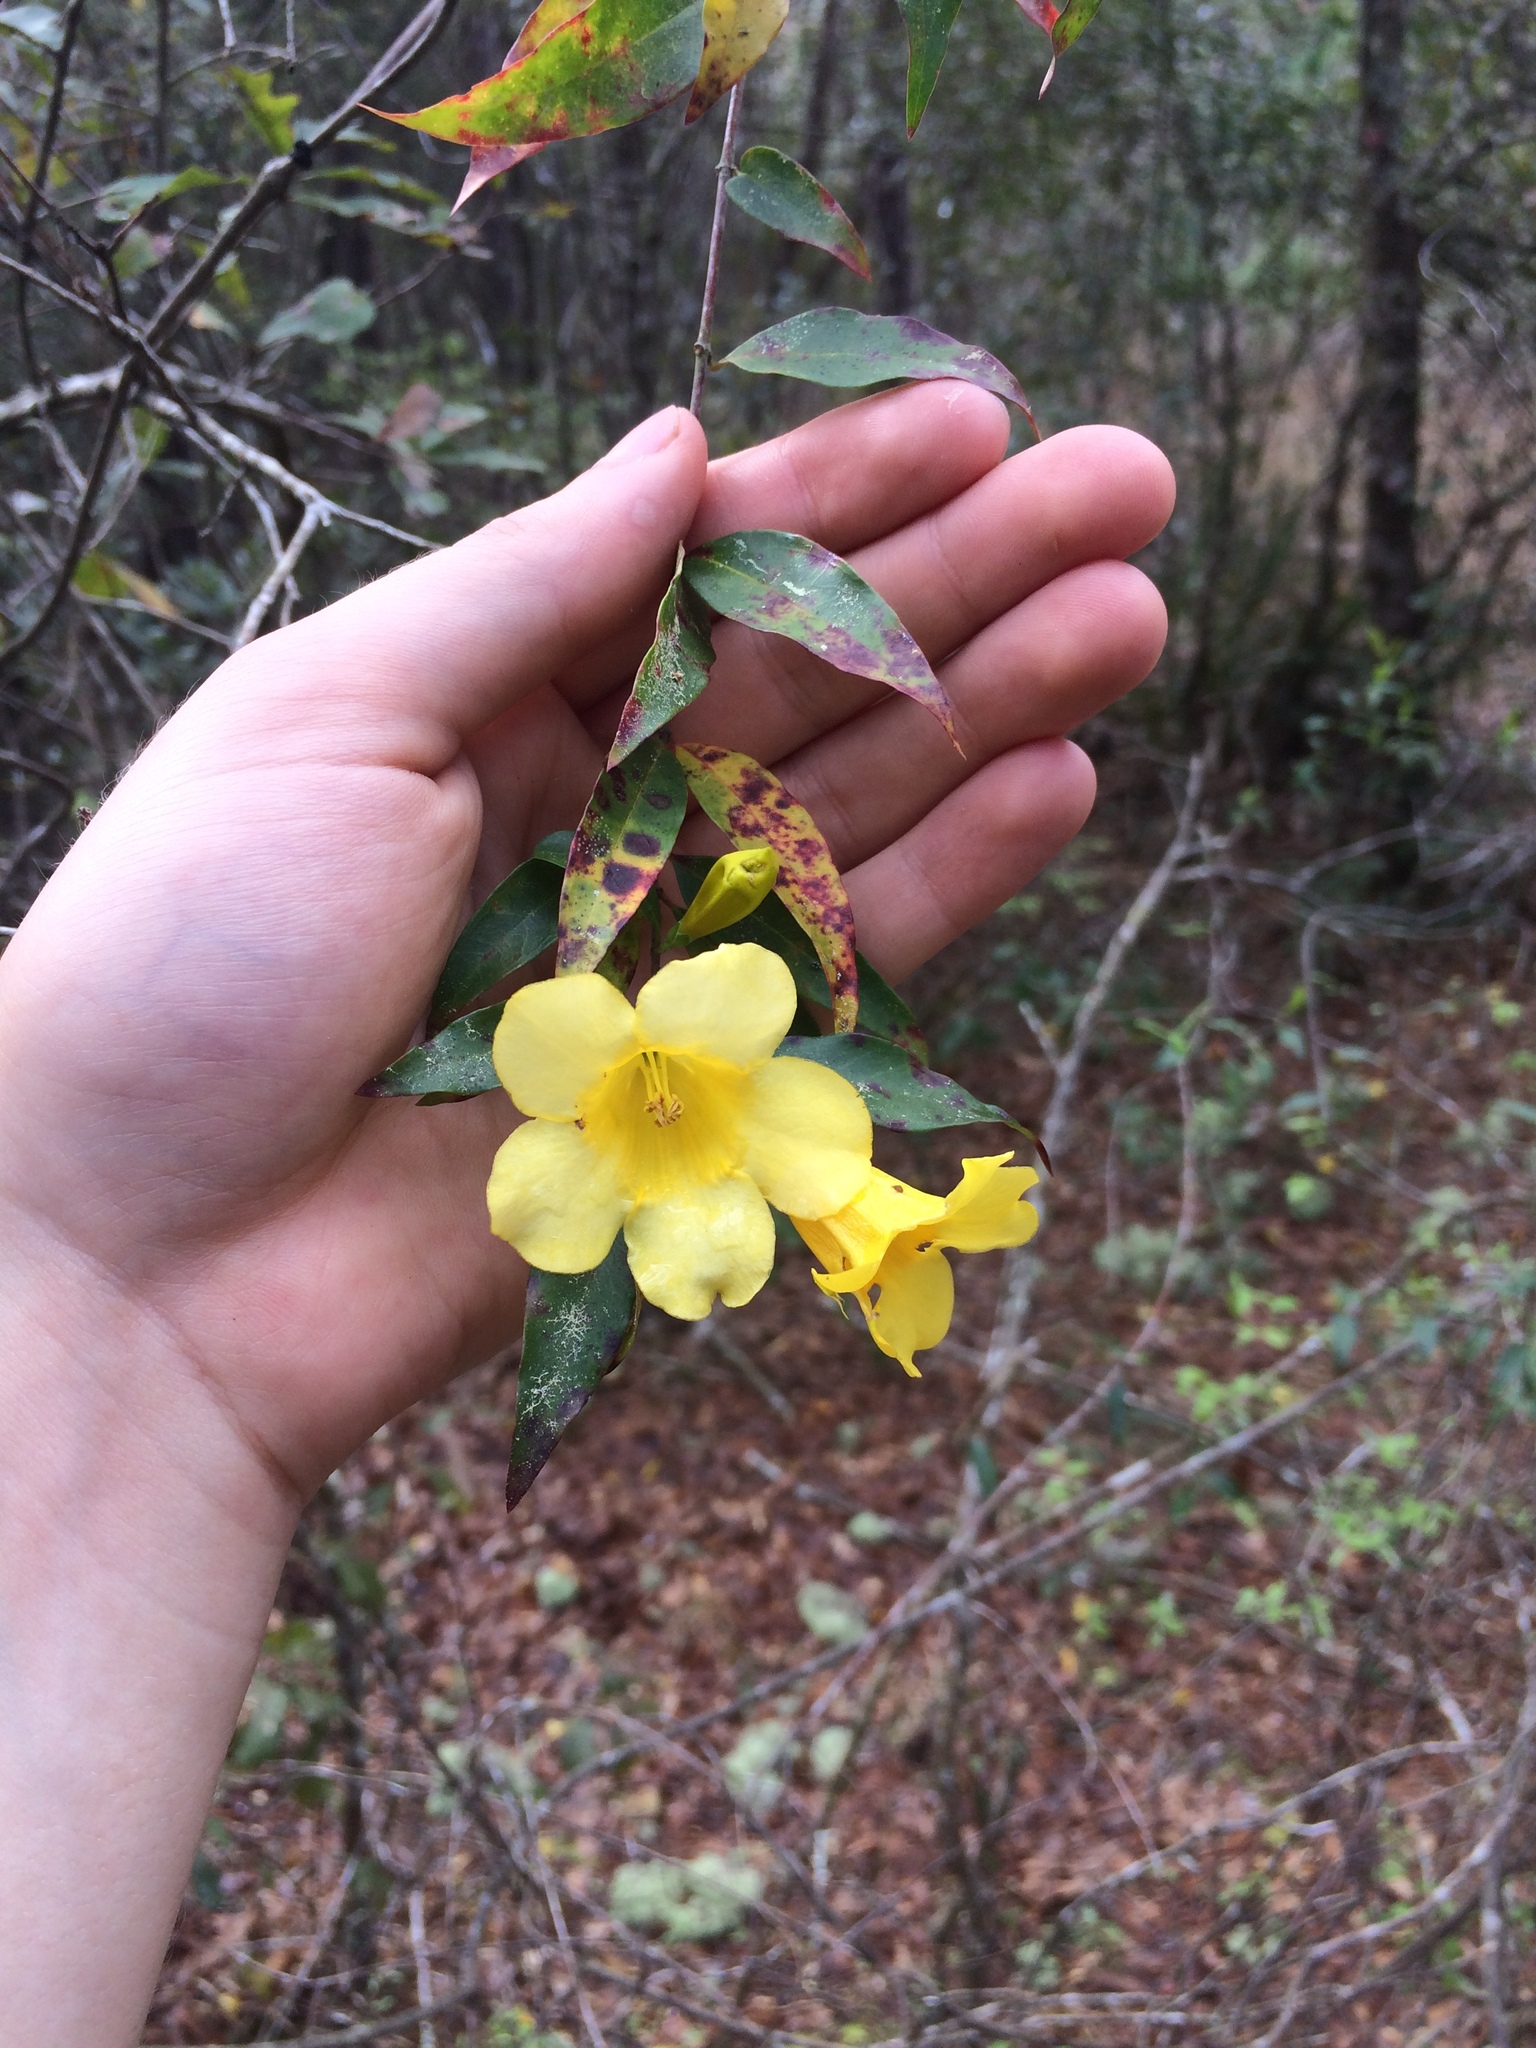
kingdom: Plantae
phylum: Tracheophyta
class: Magnoliopsida
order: Gentianales
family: Gelsemiaceae
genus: Gelsemium
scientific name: Gelsemium sempervirens
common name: Carolina-jasmine
